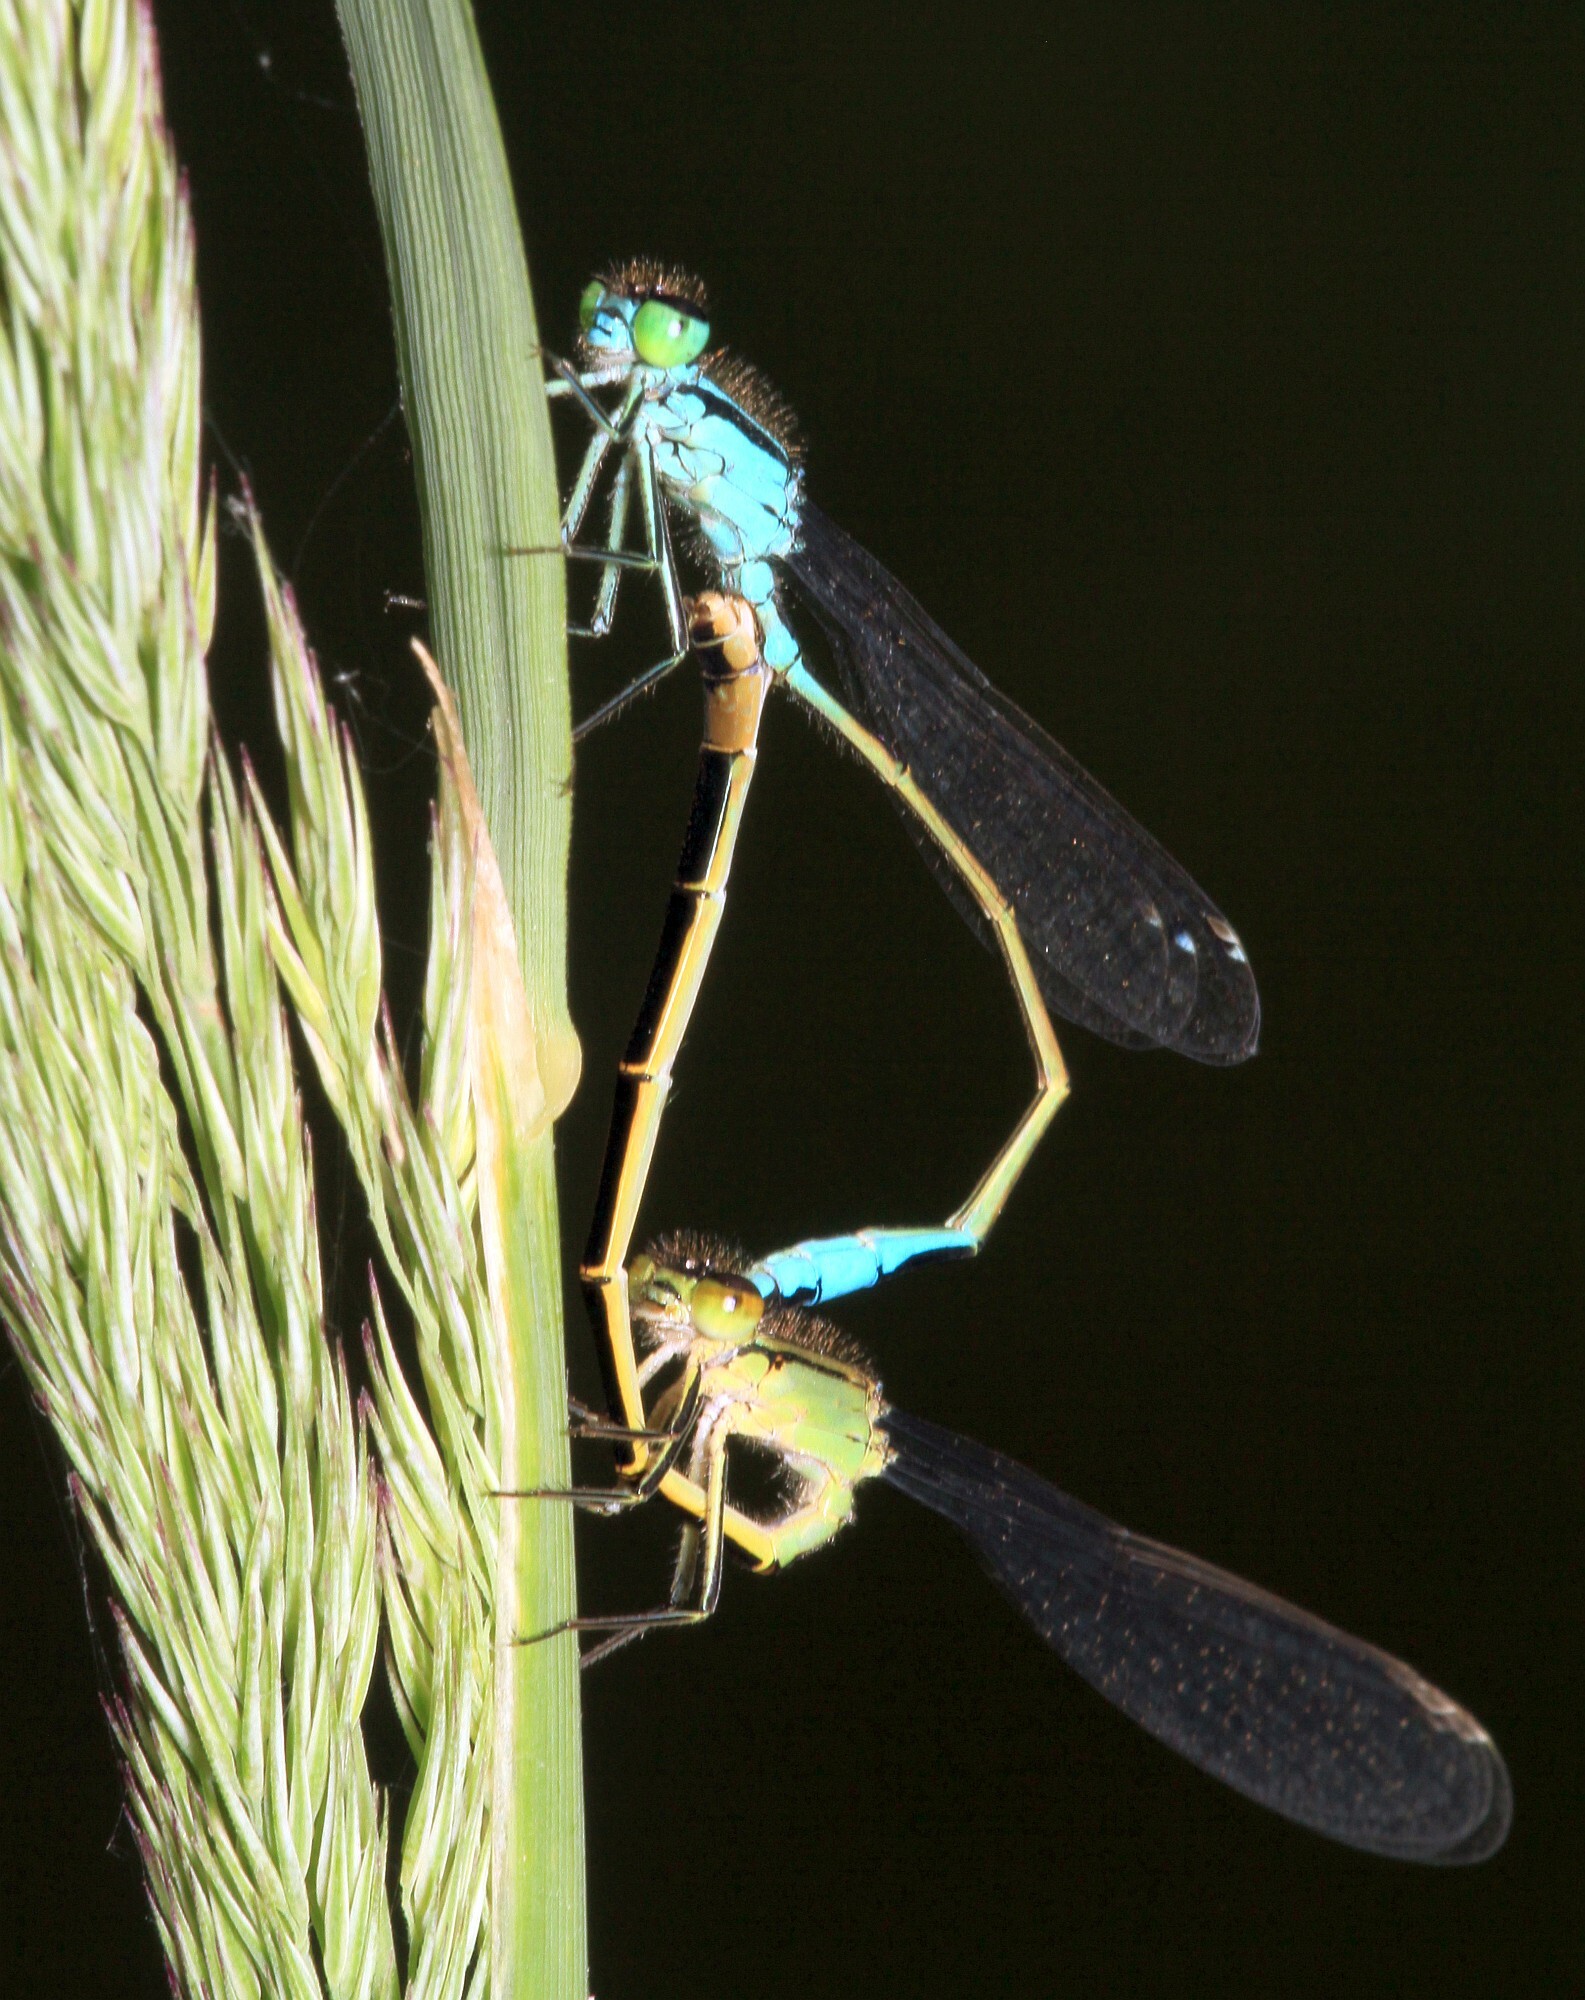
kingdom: Animalia
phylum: Arthropoda
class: Insecta
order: Odonata
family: Coenagrionidae
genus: Ischnura
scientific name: Ischnura elegans
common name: Blue-tailed damselfly
